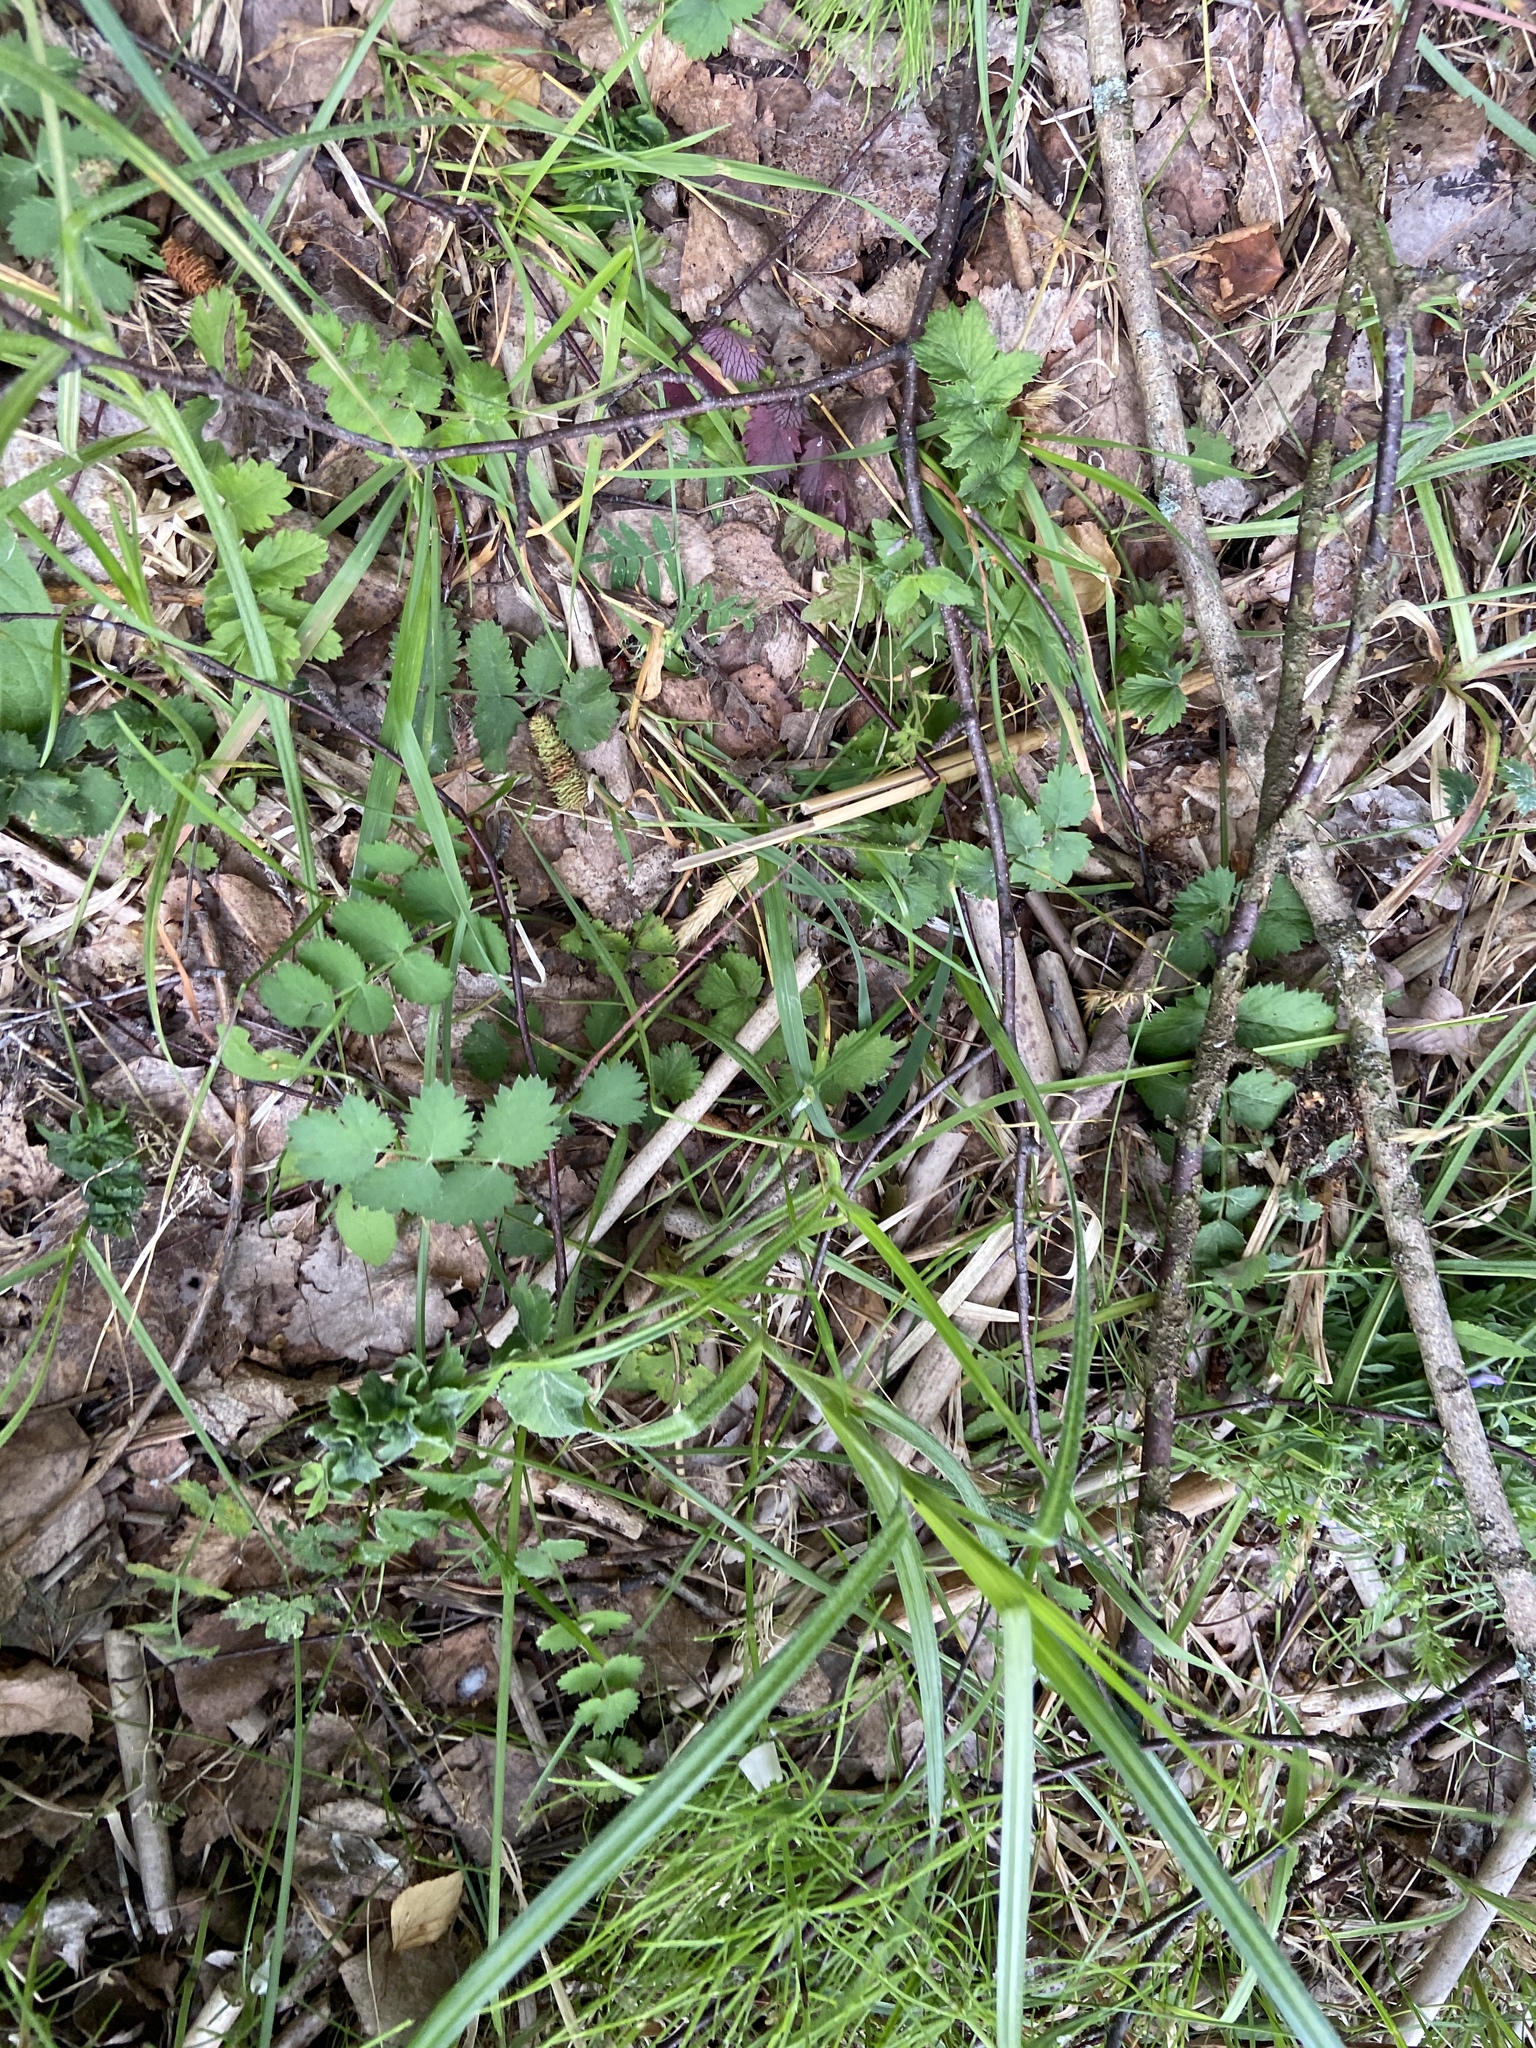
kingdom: Plantae
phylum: Tracheophyta
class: Magnoliopsida
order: Apiales
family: Apiaceae
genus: Pimpinella
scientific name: Pimpinella saxifraga
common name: Burnet-saxifrage
